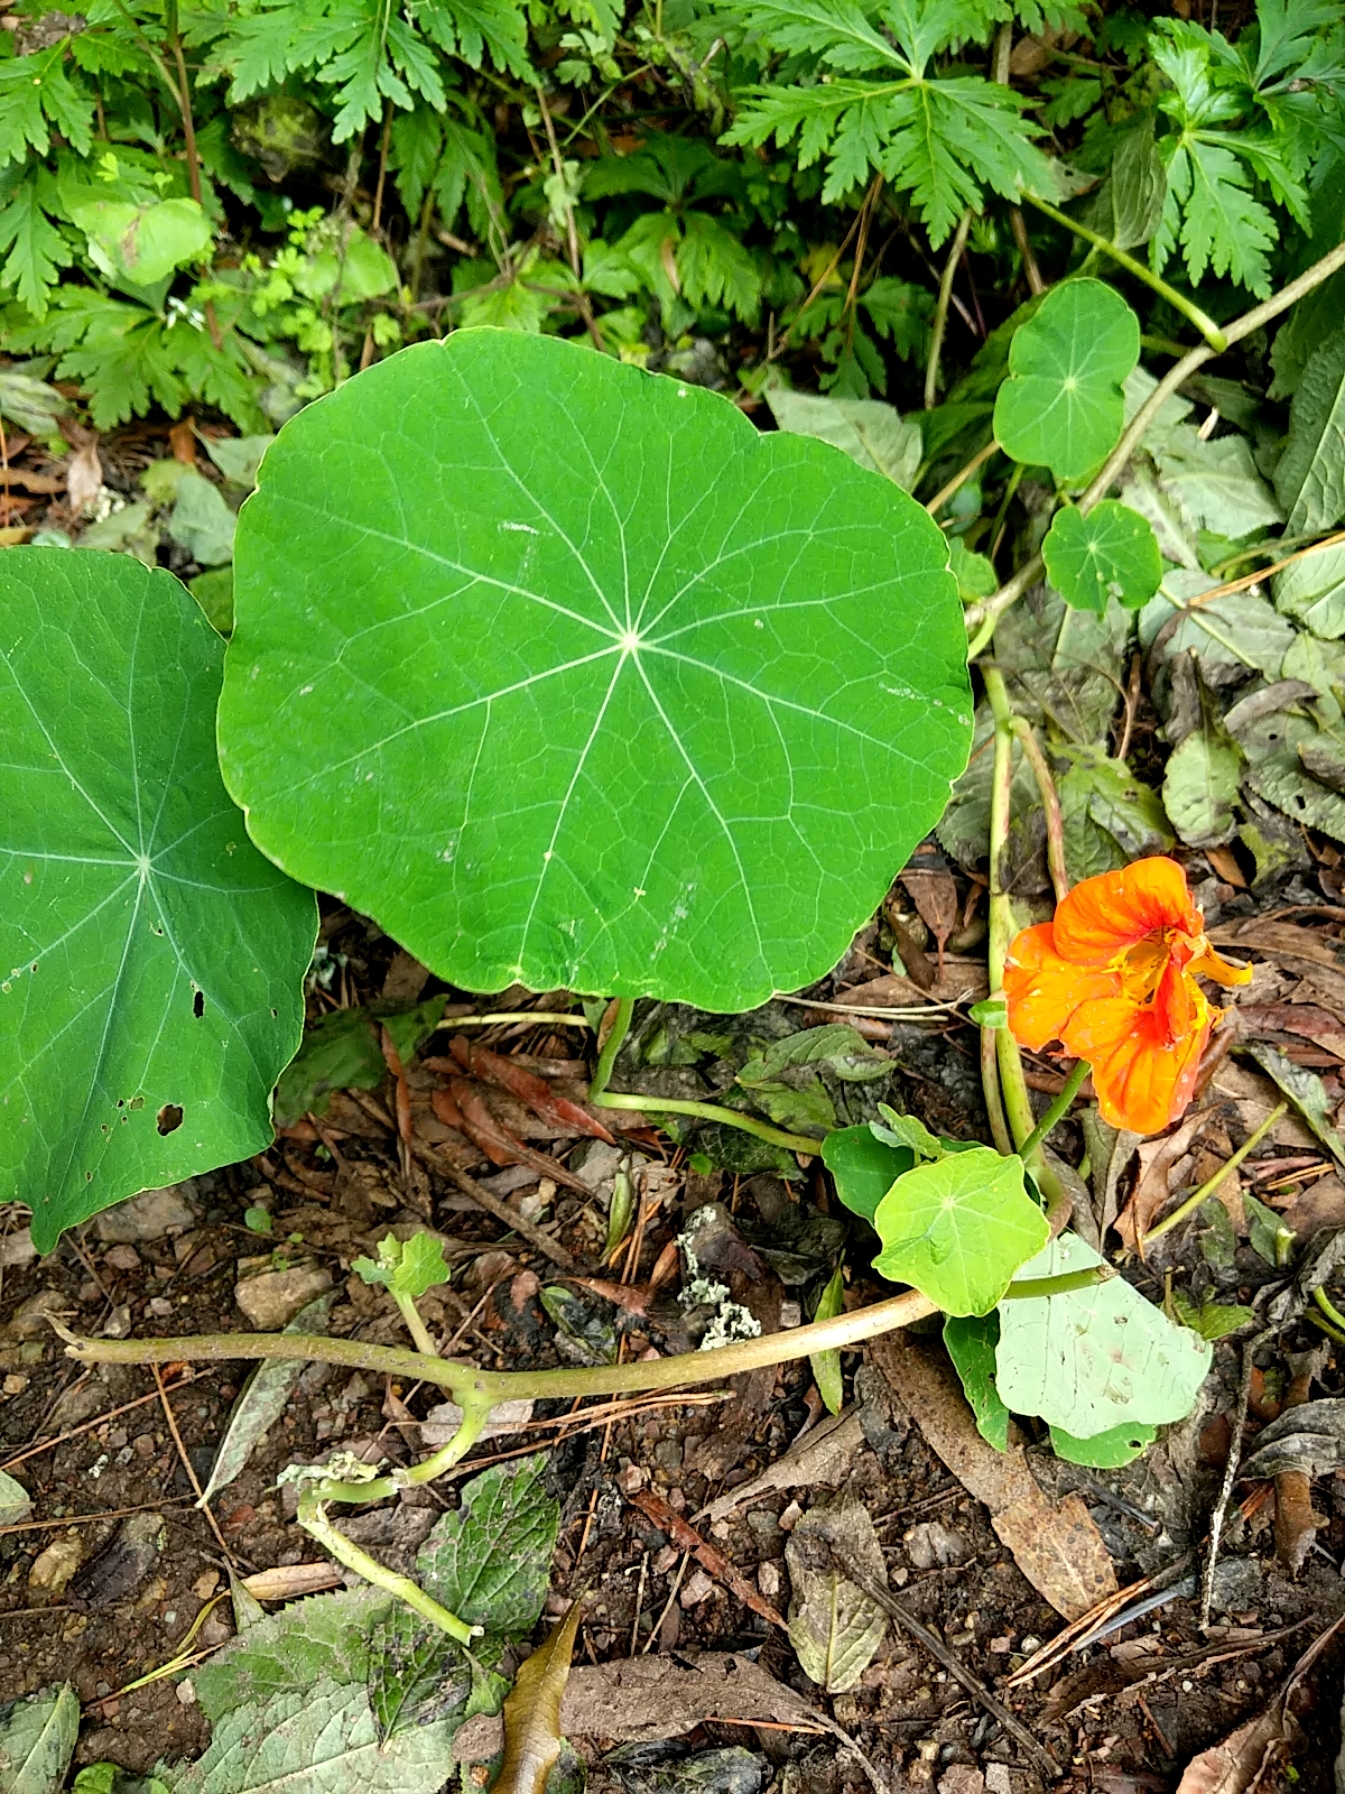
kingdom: Plantae
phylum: Tracheophyta
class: Magnoliopsida
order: Brassicales
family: Tropaeolaceae
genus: Tropaeolum
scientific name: Tropaeolum majus
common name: Nasturtium
